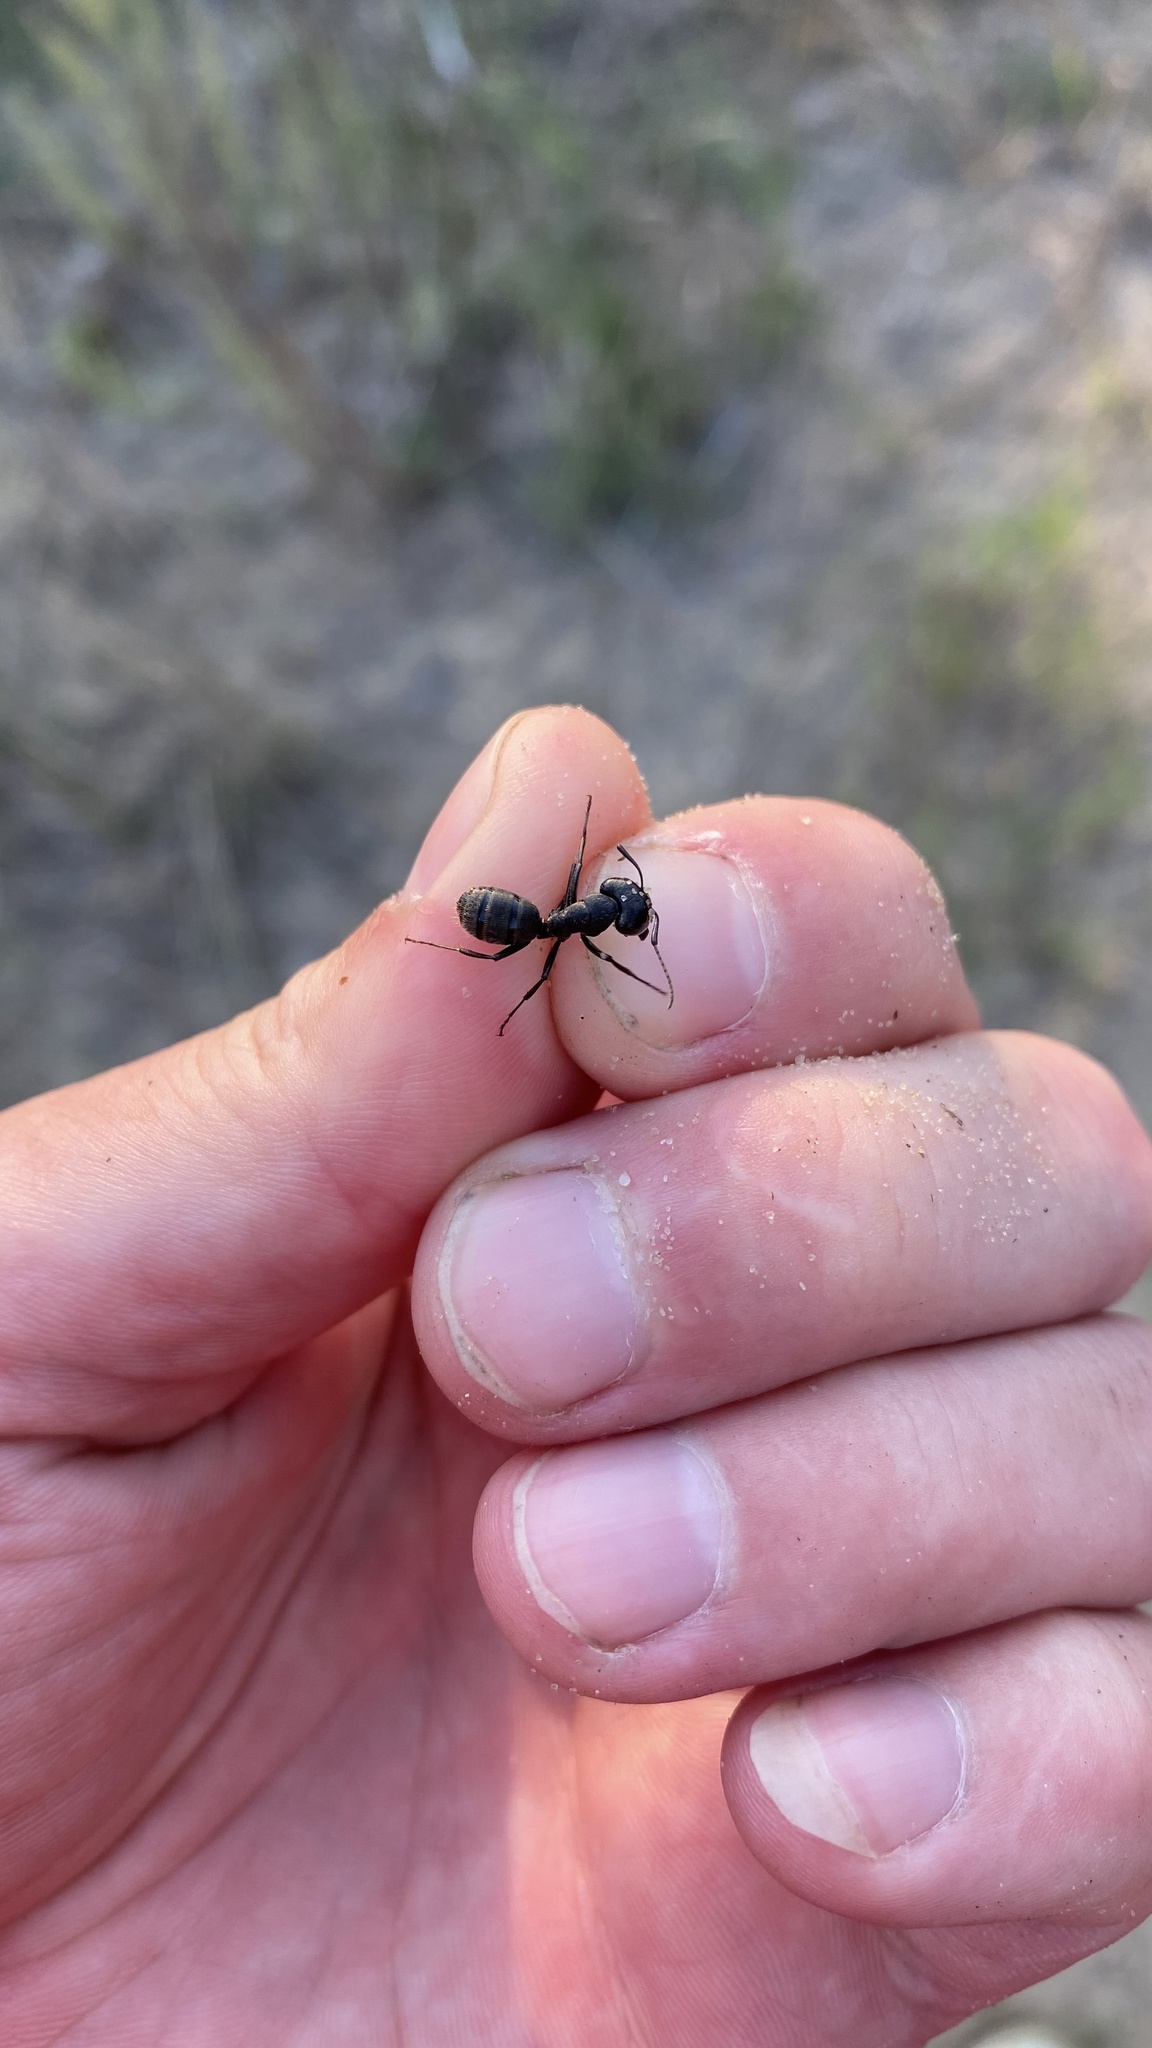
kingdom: Animalia
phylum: Arthropoda
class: Insecta
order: Hymenoptera
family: Formicidae
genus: Camponotus
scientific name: Camponotus vagus
